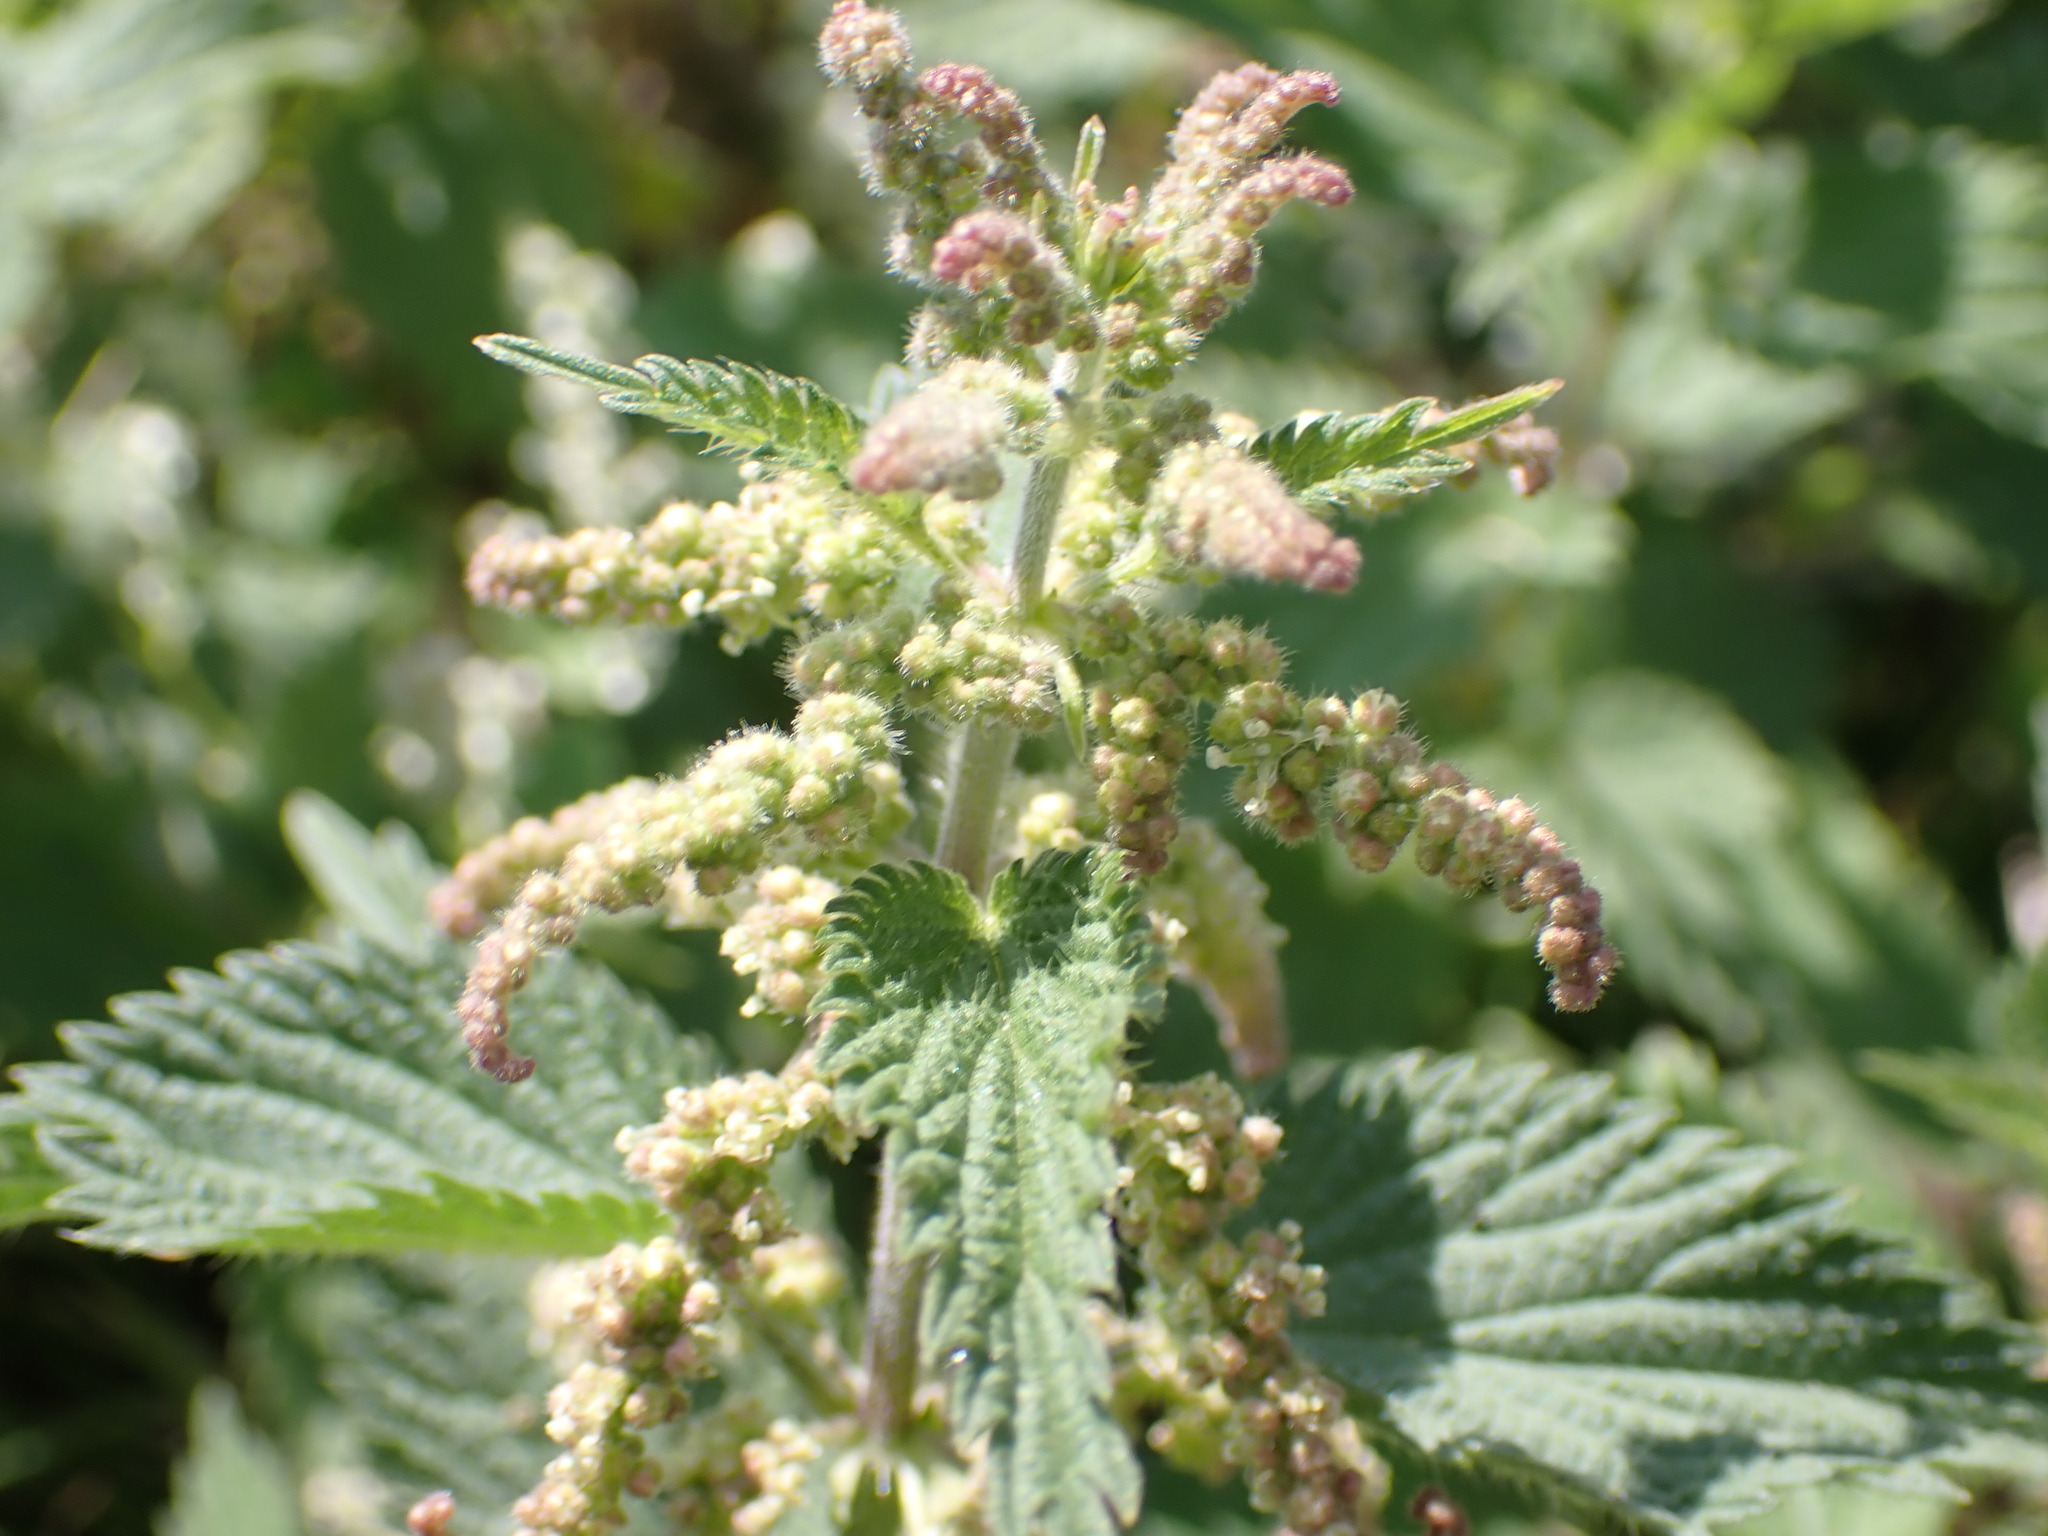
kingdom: Plantae
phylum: Tracheophyta
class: Magnoliopsida
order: Rosales
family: Urticaceae
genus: Urtica
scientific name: Urtica dioica
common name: Common nettle
